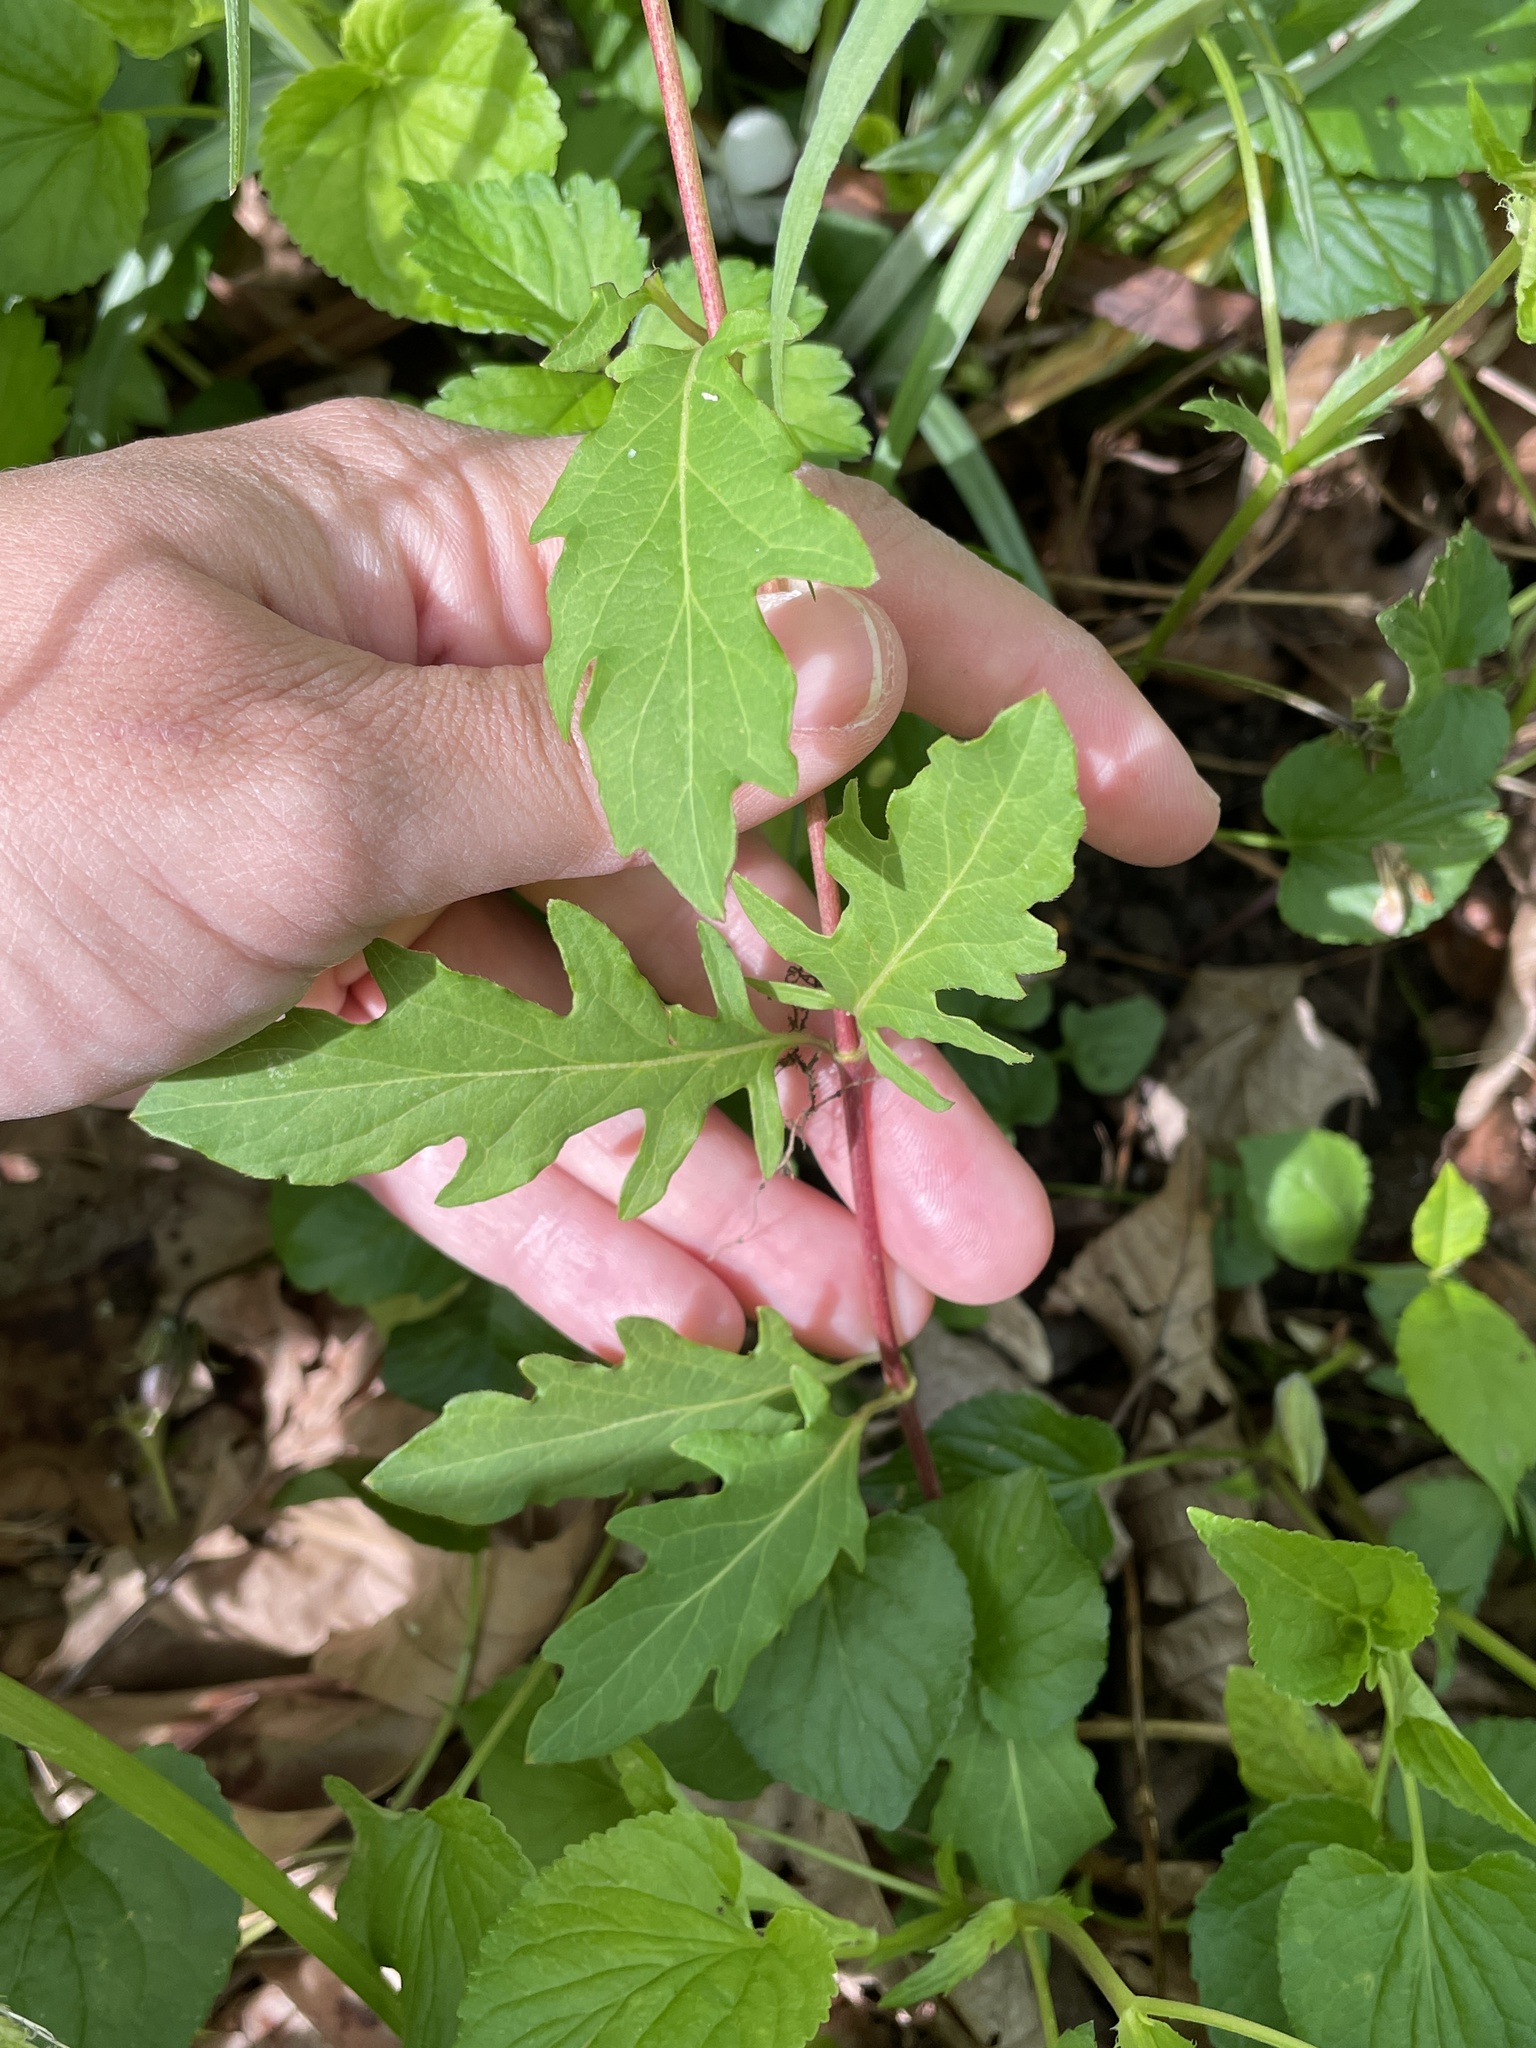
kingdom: Plantae
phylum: Tracheophyta
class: Magnoliopsida
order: Dipsacales
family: Caprifoliaceae
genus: Lonicera
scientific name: Lonicera japonica
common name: Japanese honeysuckle
